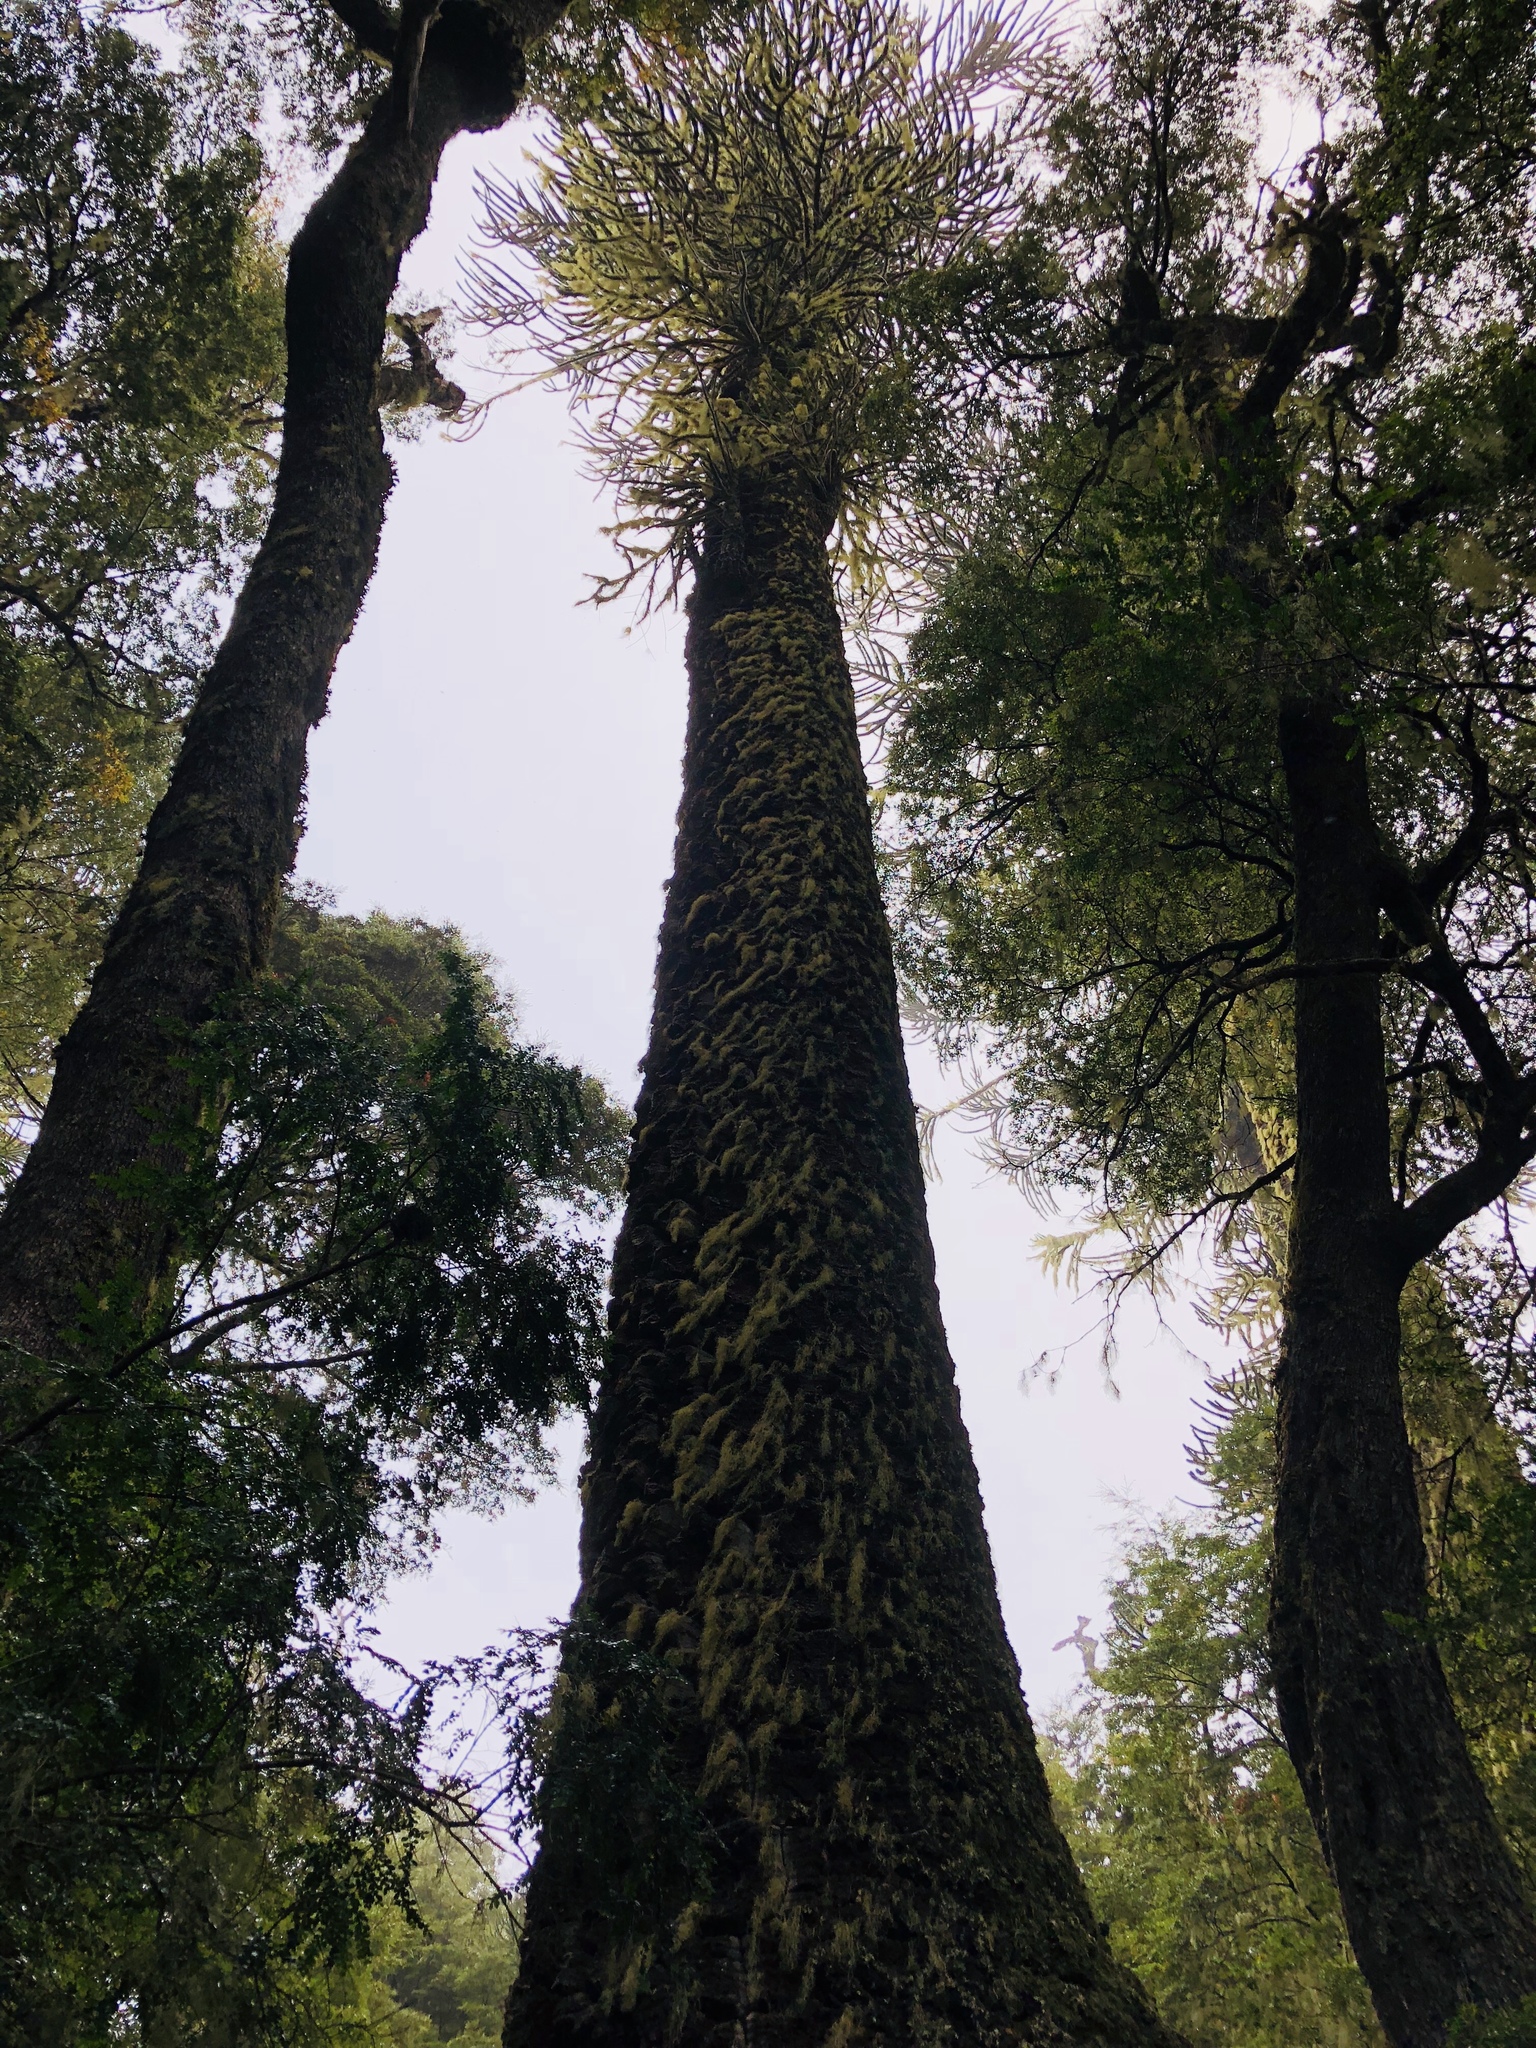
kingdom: Plantae
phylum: Tracheophyta
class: Pinopsida
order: Pinales
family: Araucariaceae
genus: Araucaria
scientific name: Araucaria araucana
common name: Monkey-puzzle
